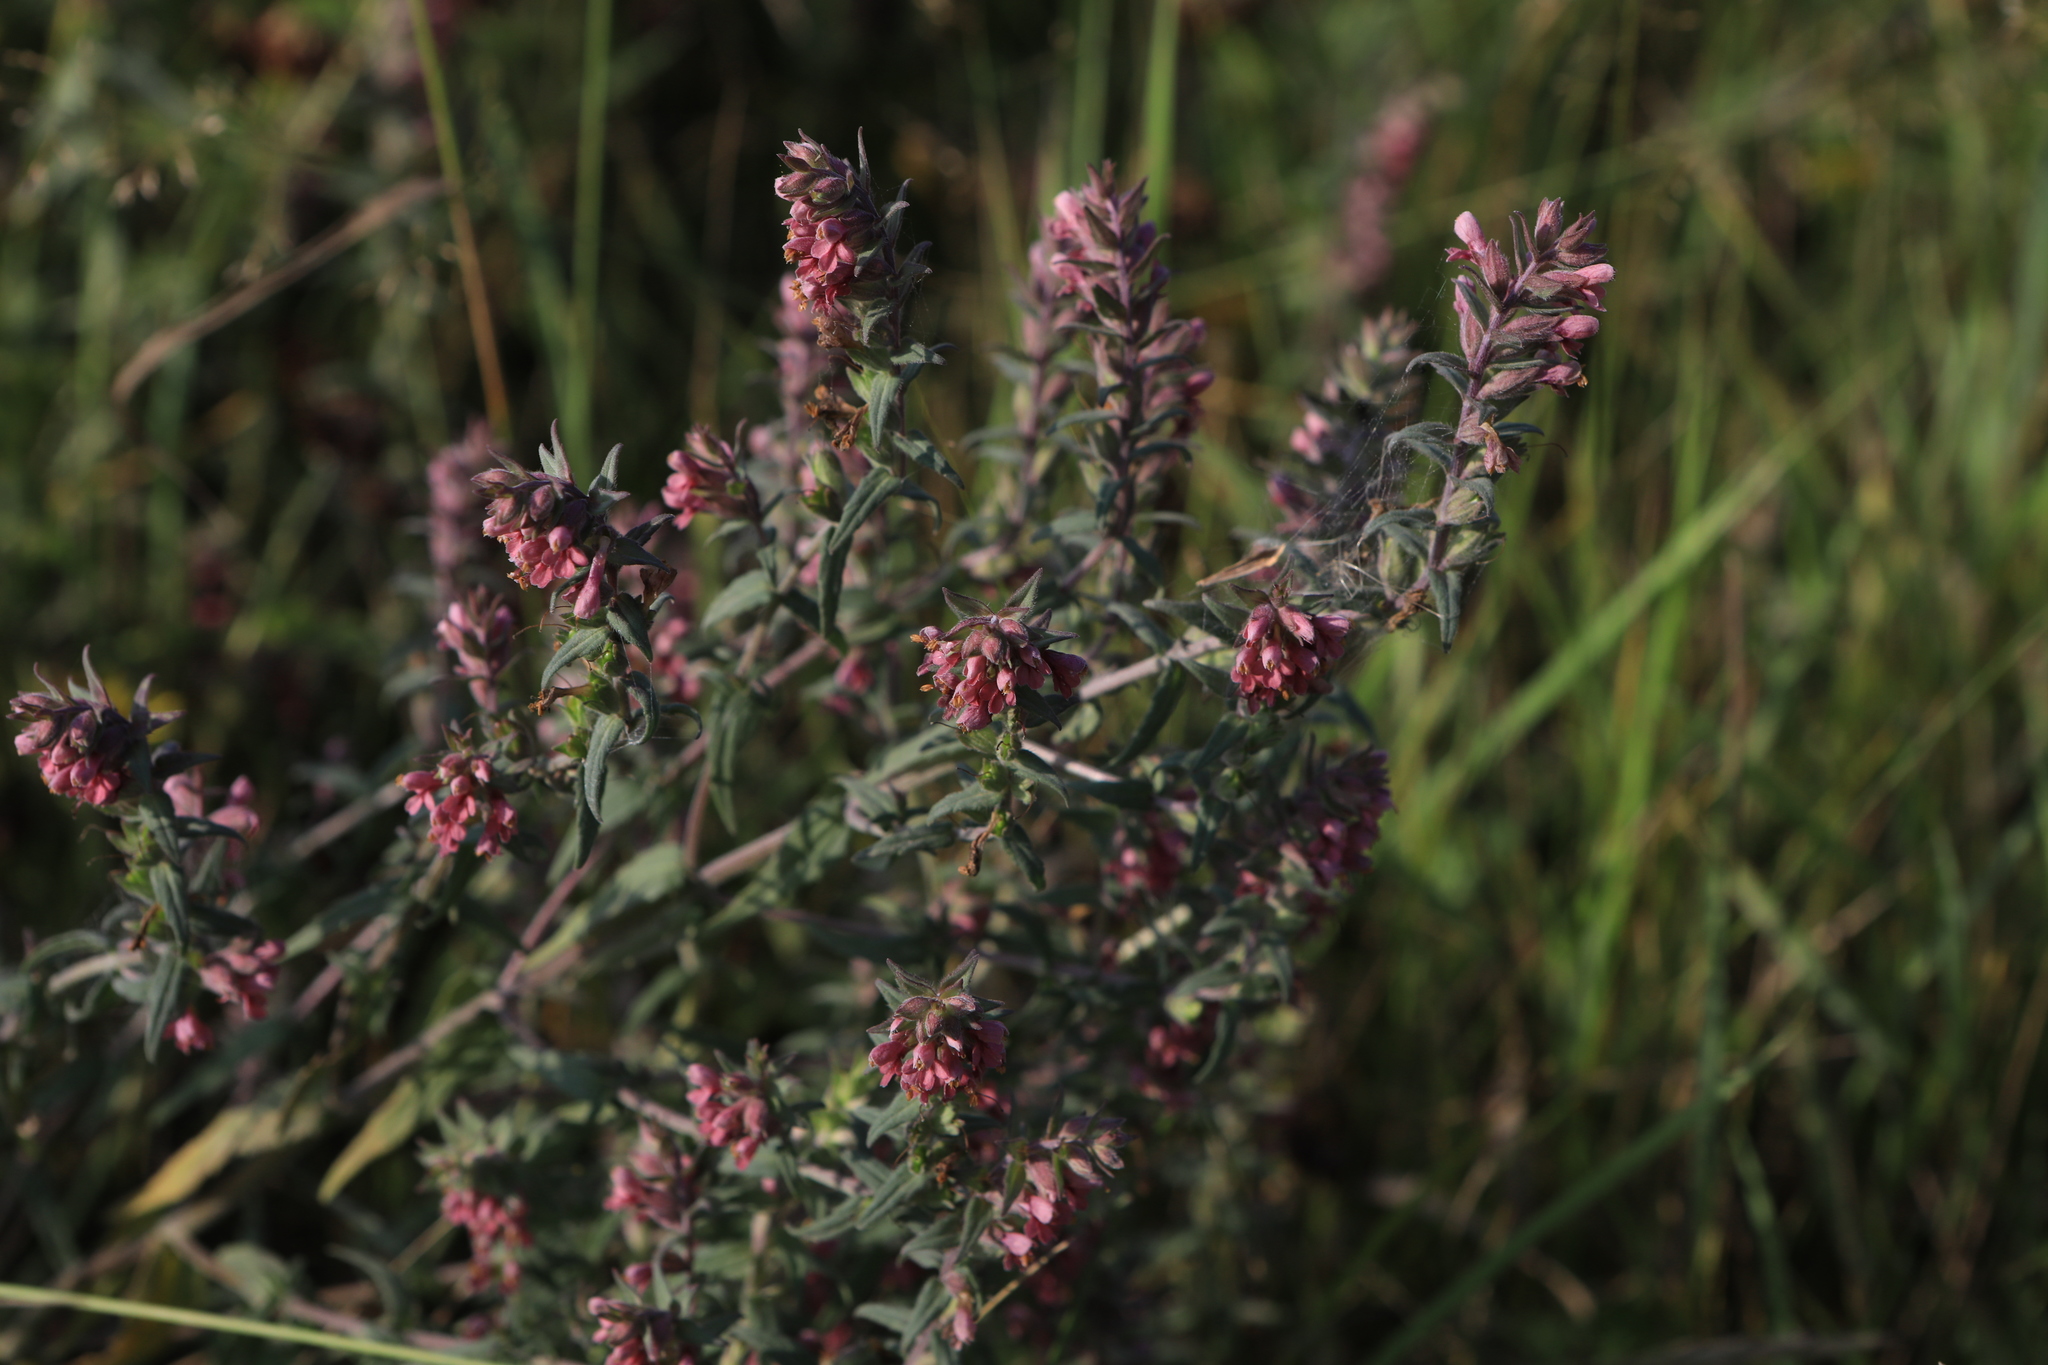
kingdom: Plantae
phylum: Tracheophyta
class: Magnoliopsida
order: Lamiales
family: Orobanchaceae
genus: Odontites
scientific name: Odontites vulgaris
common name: Broomrape
